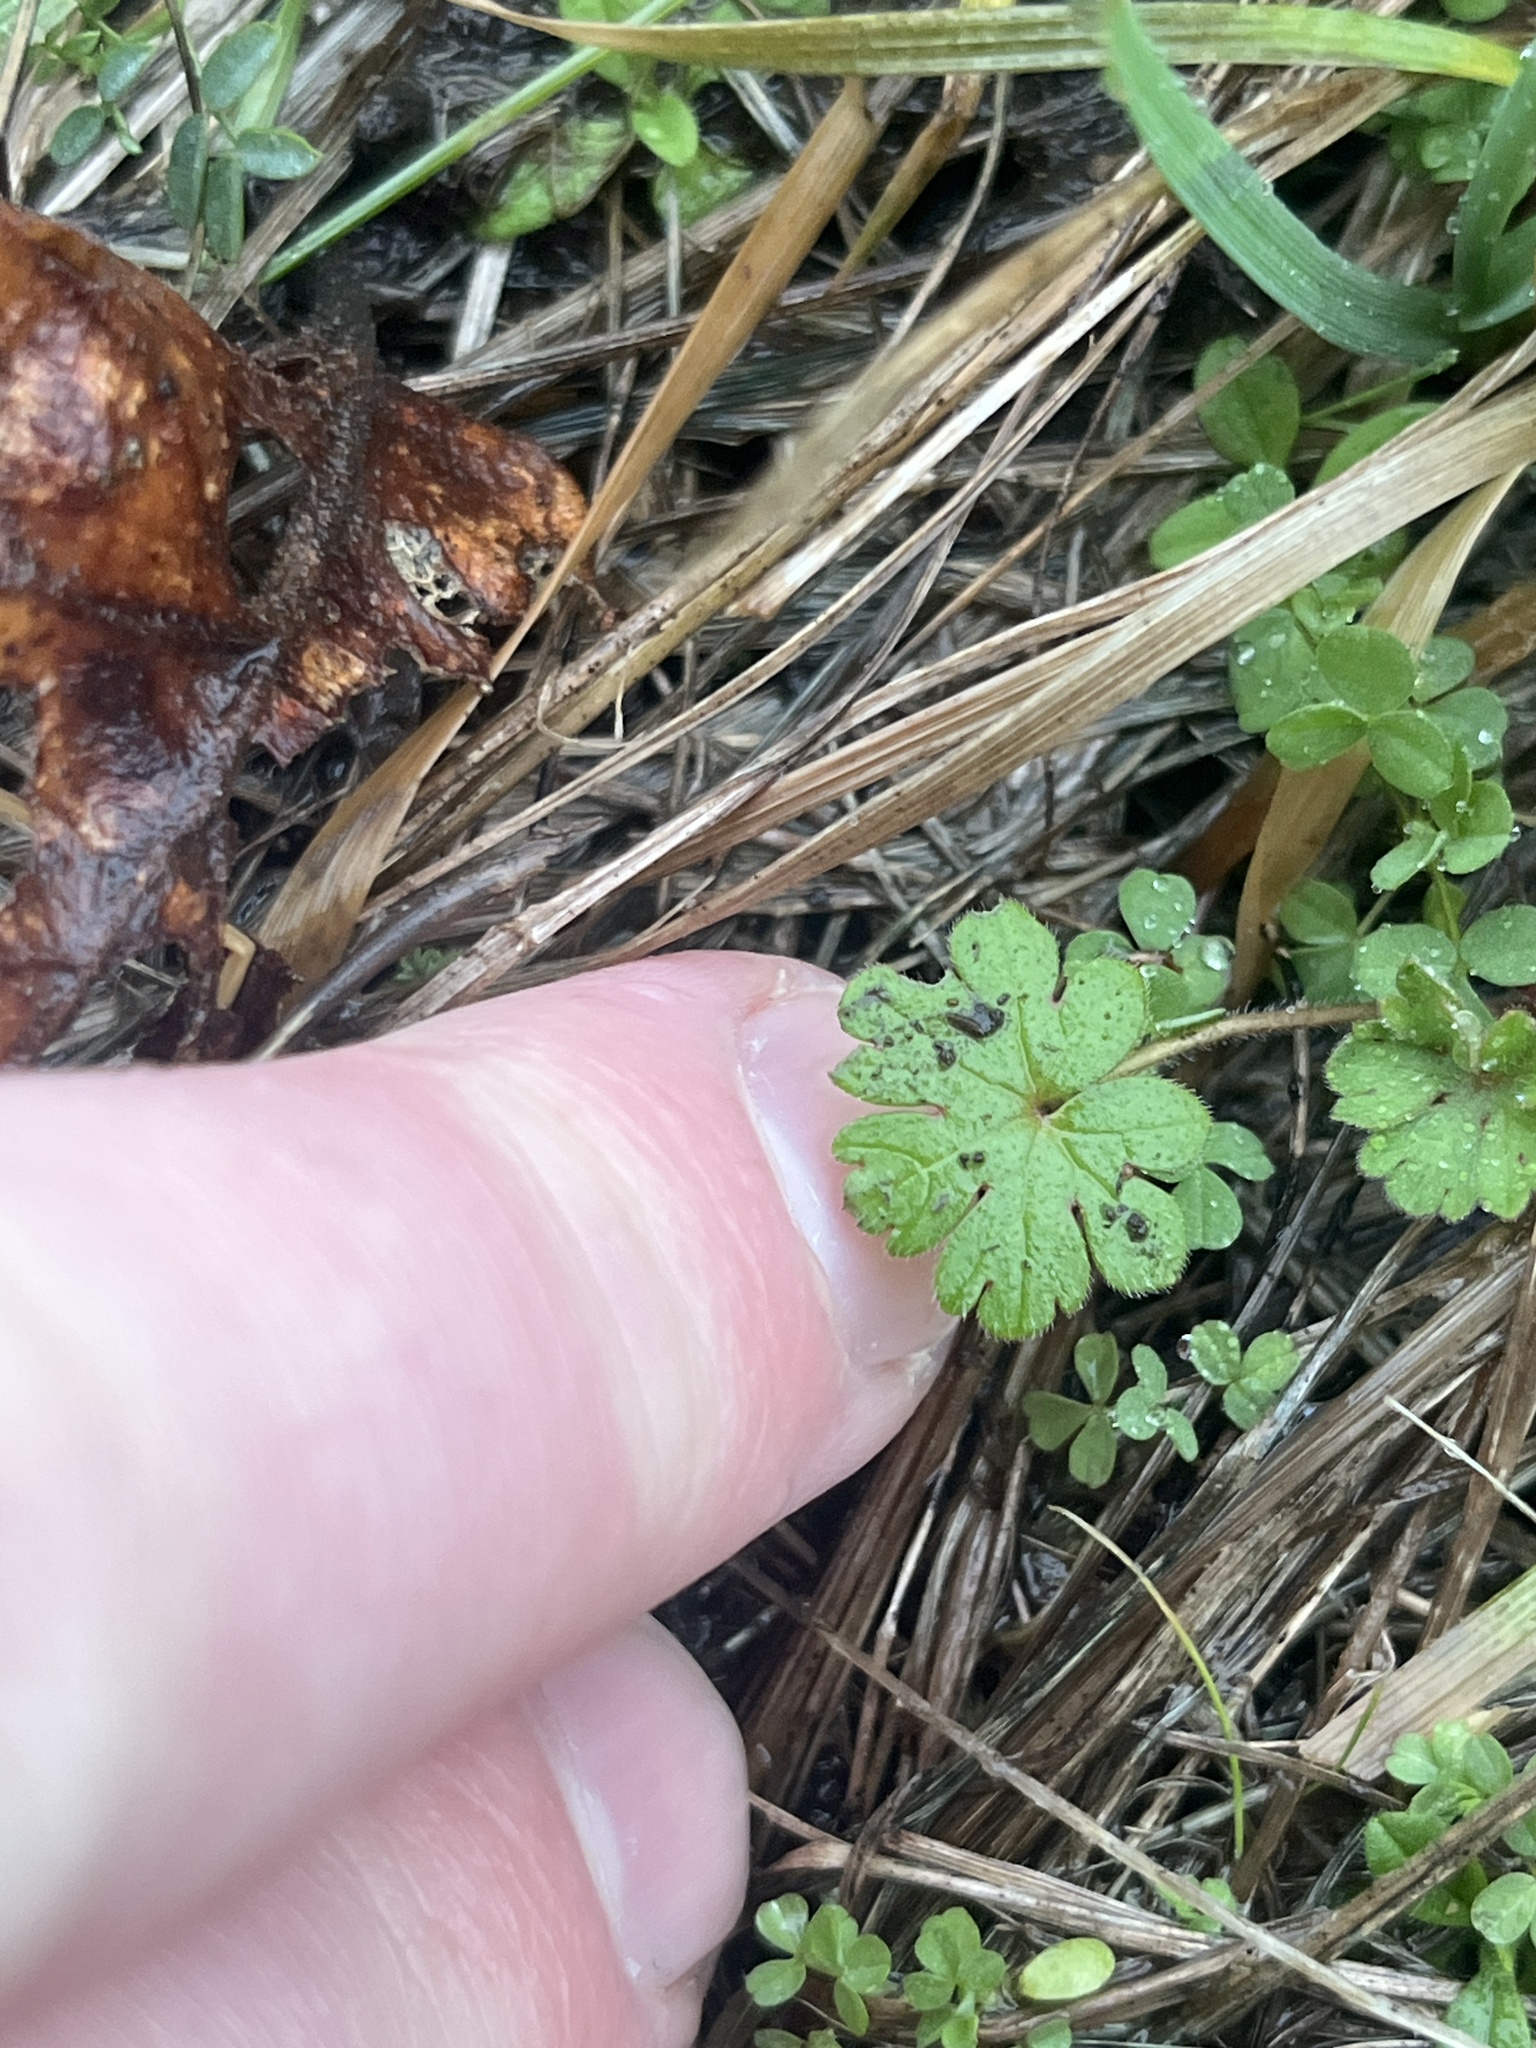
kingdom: Plantae
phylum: Tracheophyta
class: Magnoliopsida
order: Geraniales
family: Geraniaceae
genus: Geranium
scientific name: Geranium molle
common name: Dove's-foot crane's-bill
